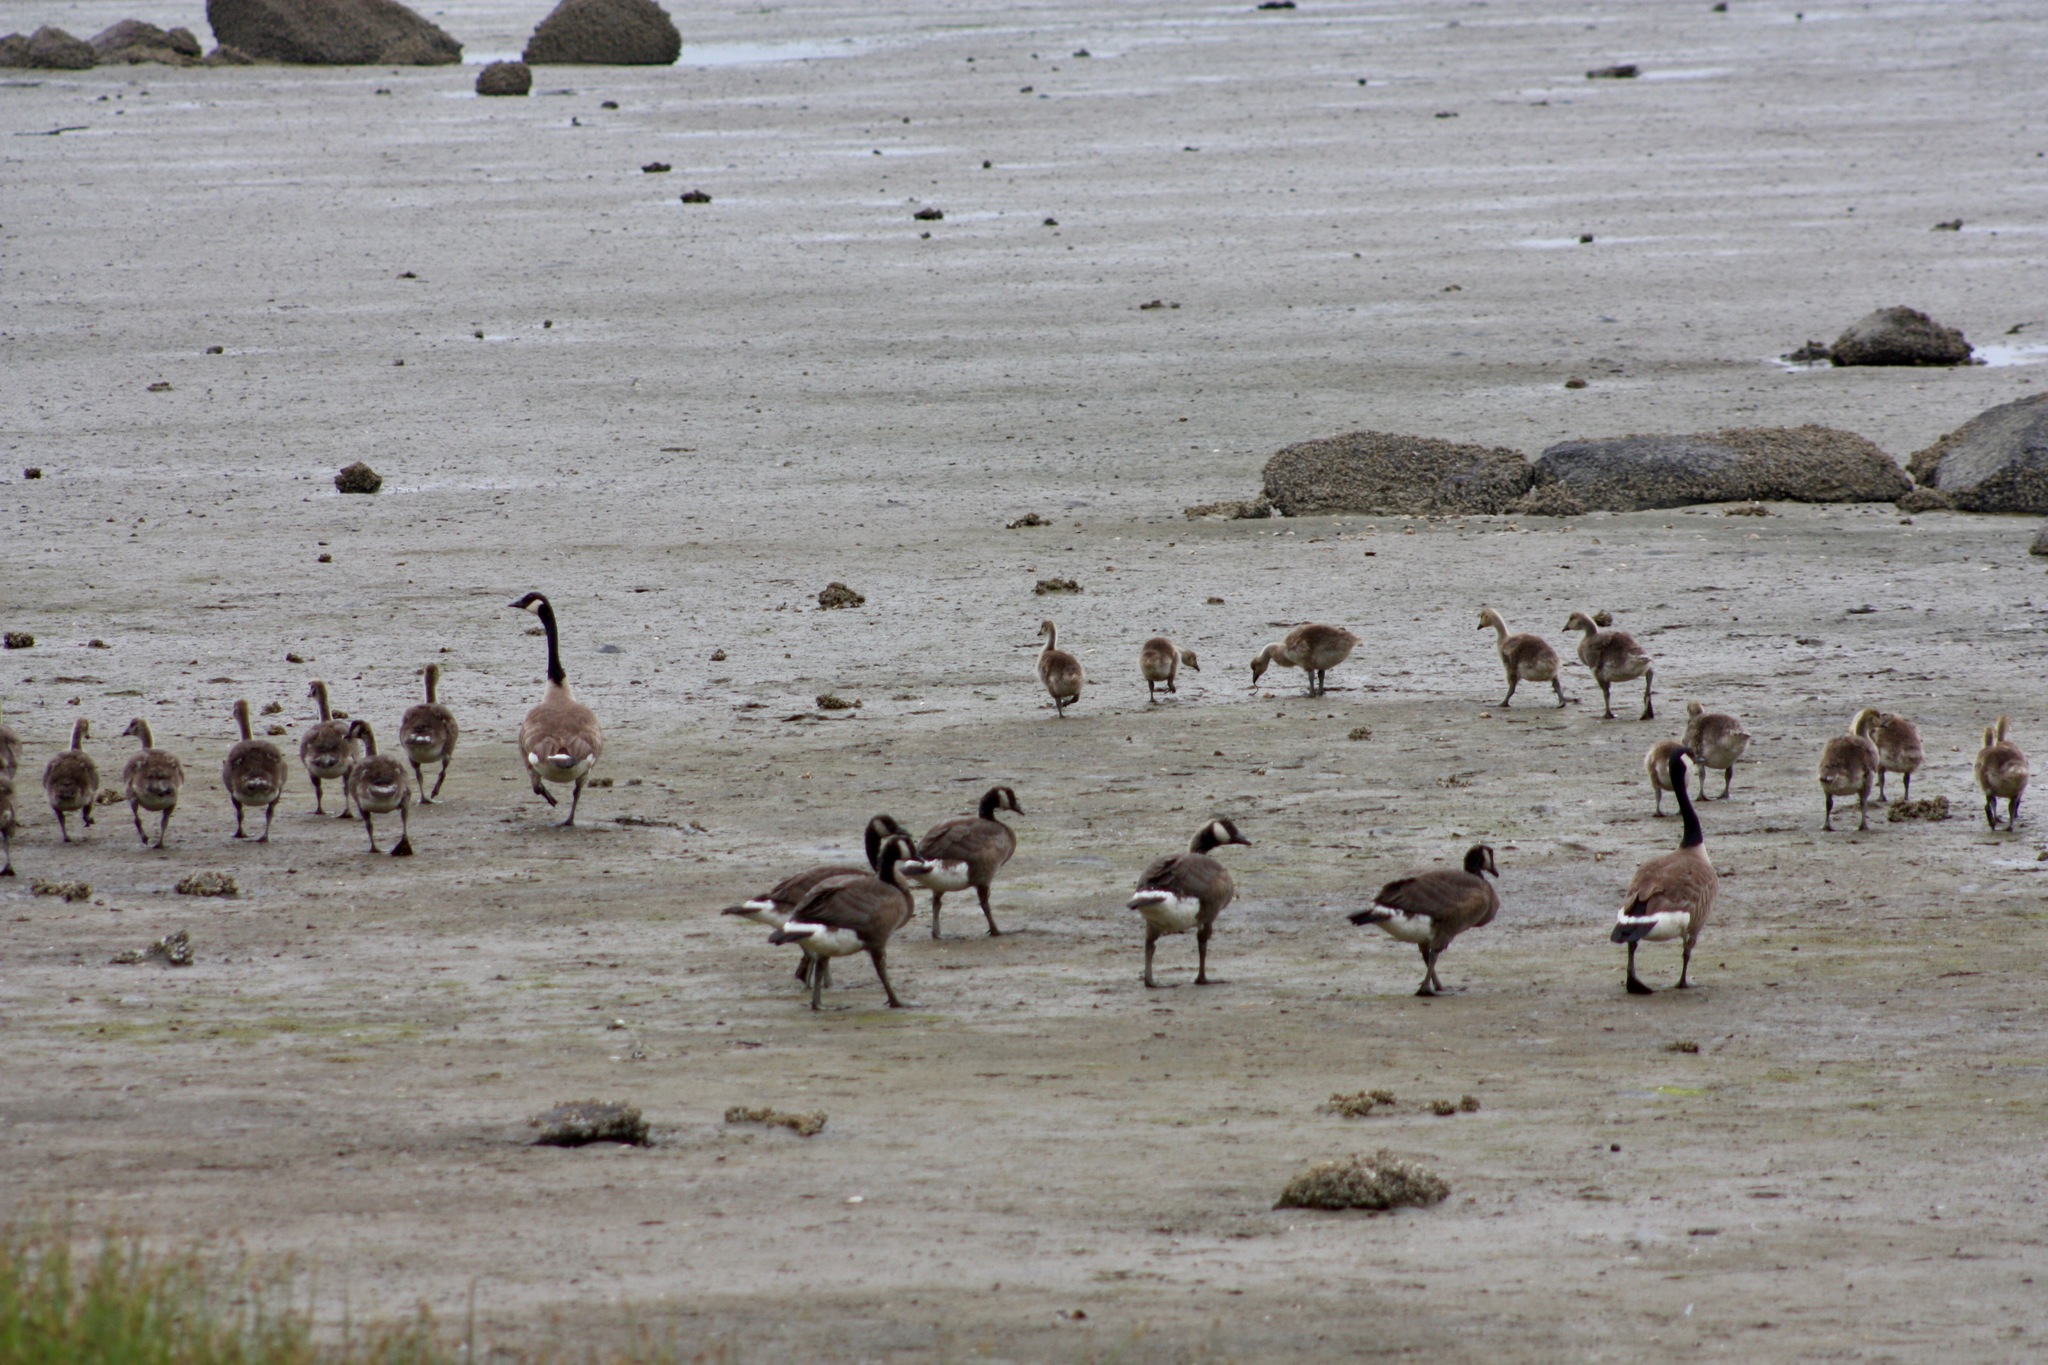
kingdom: Animalia
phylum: Chordata
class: Aves
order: Anseriformes
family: Anatidae
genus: Branta
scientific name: Branta canadensis
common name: Canada goose
